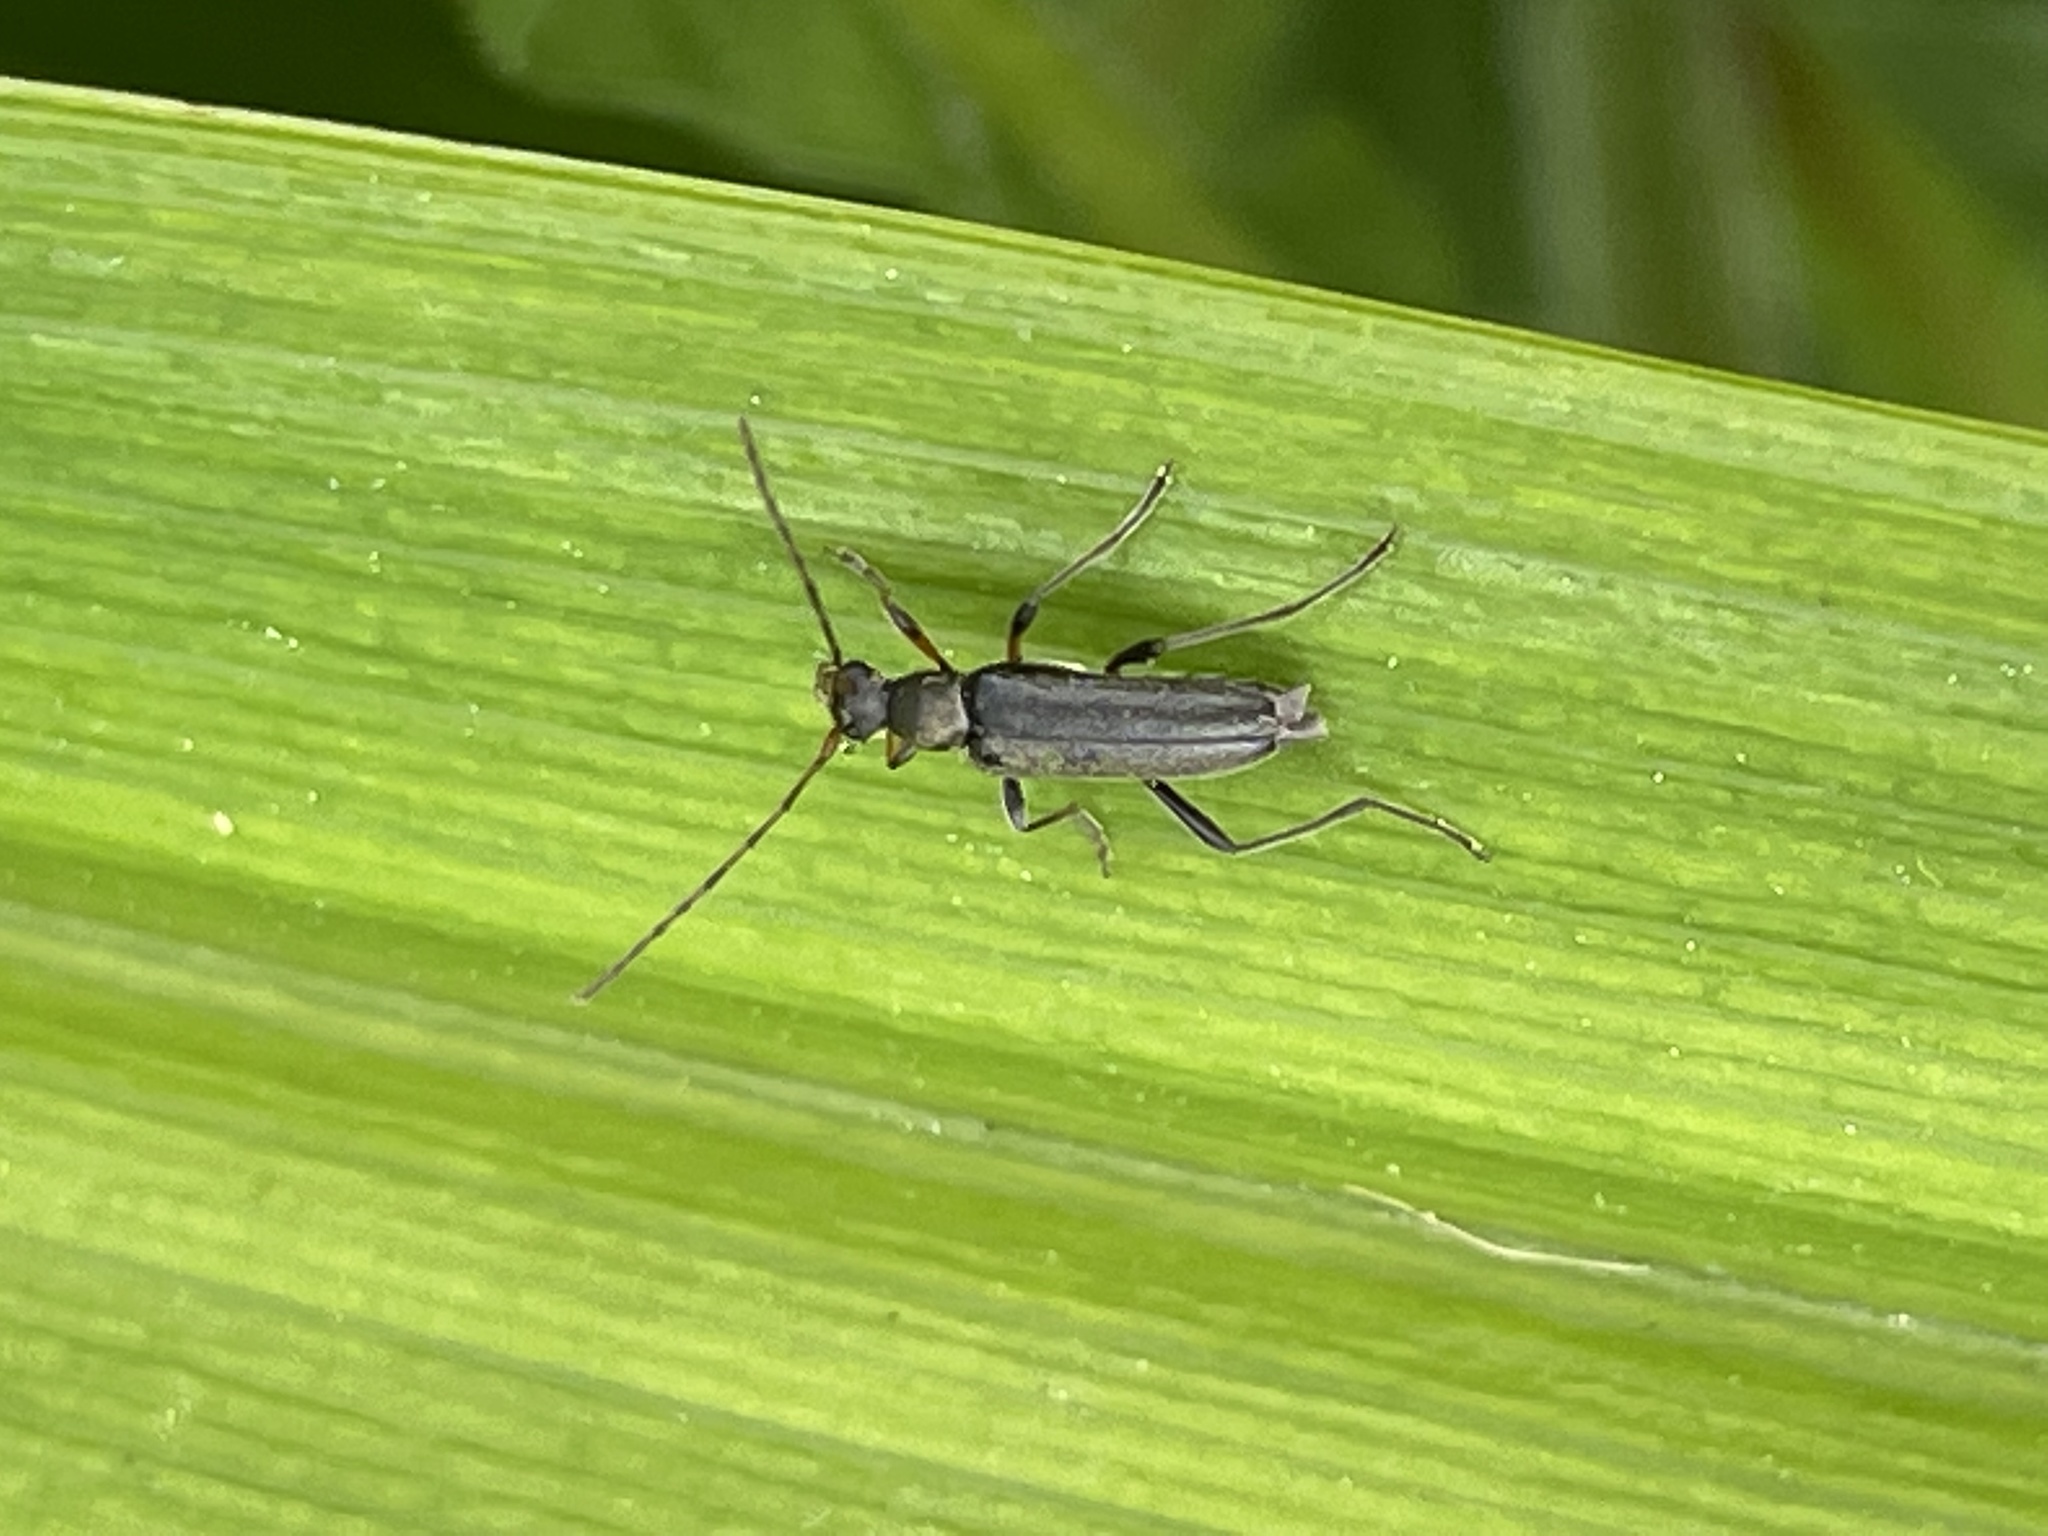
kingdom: Animalia
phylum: Arthropoda
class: Insecta
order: Coleoptera
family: Cerambycidae
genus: Grammoptera
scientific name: Grammoptera ruficornis
